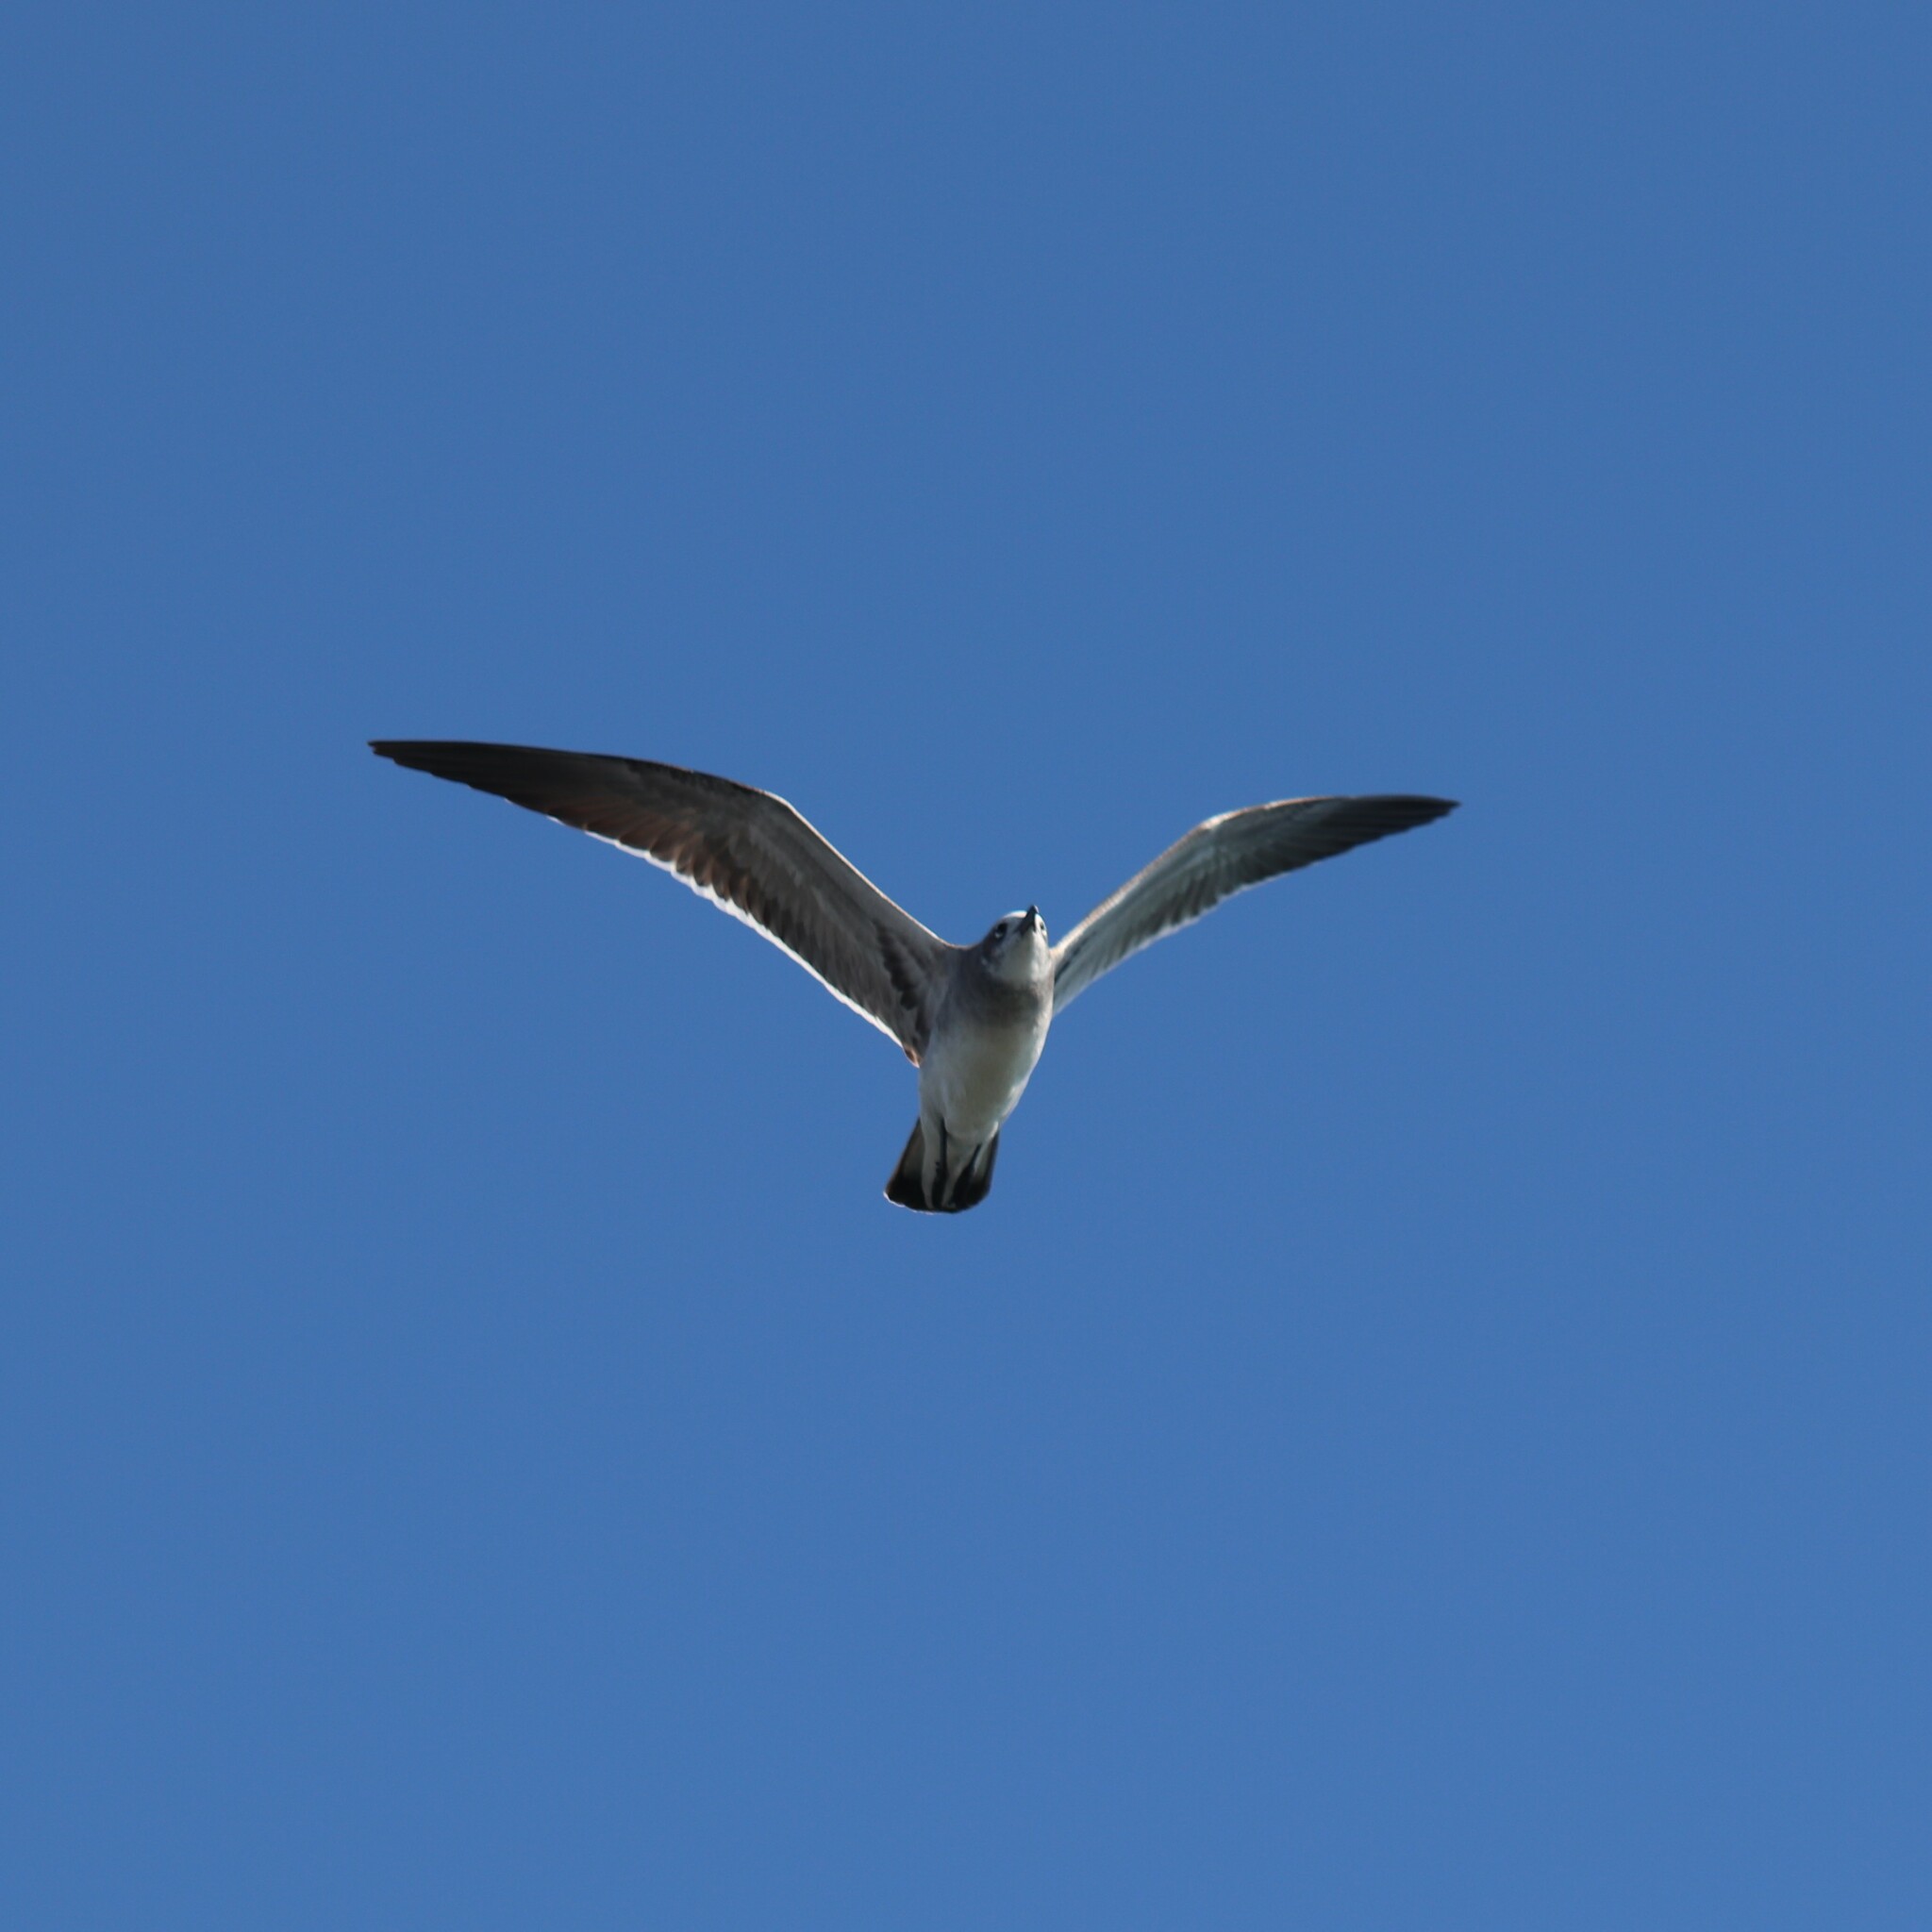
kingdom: Animalia
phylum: Chordata
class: Aves
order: Charadriiformes
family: Laridae
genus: Leucophaeus
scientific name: Leucophaeus atricilla
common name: Laughing gull
